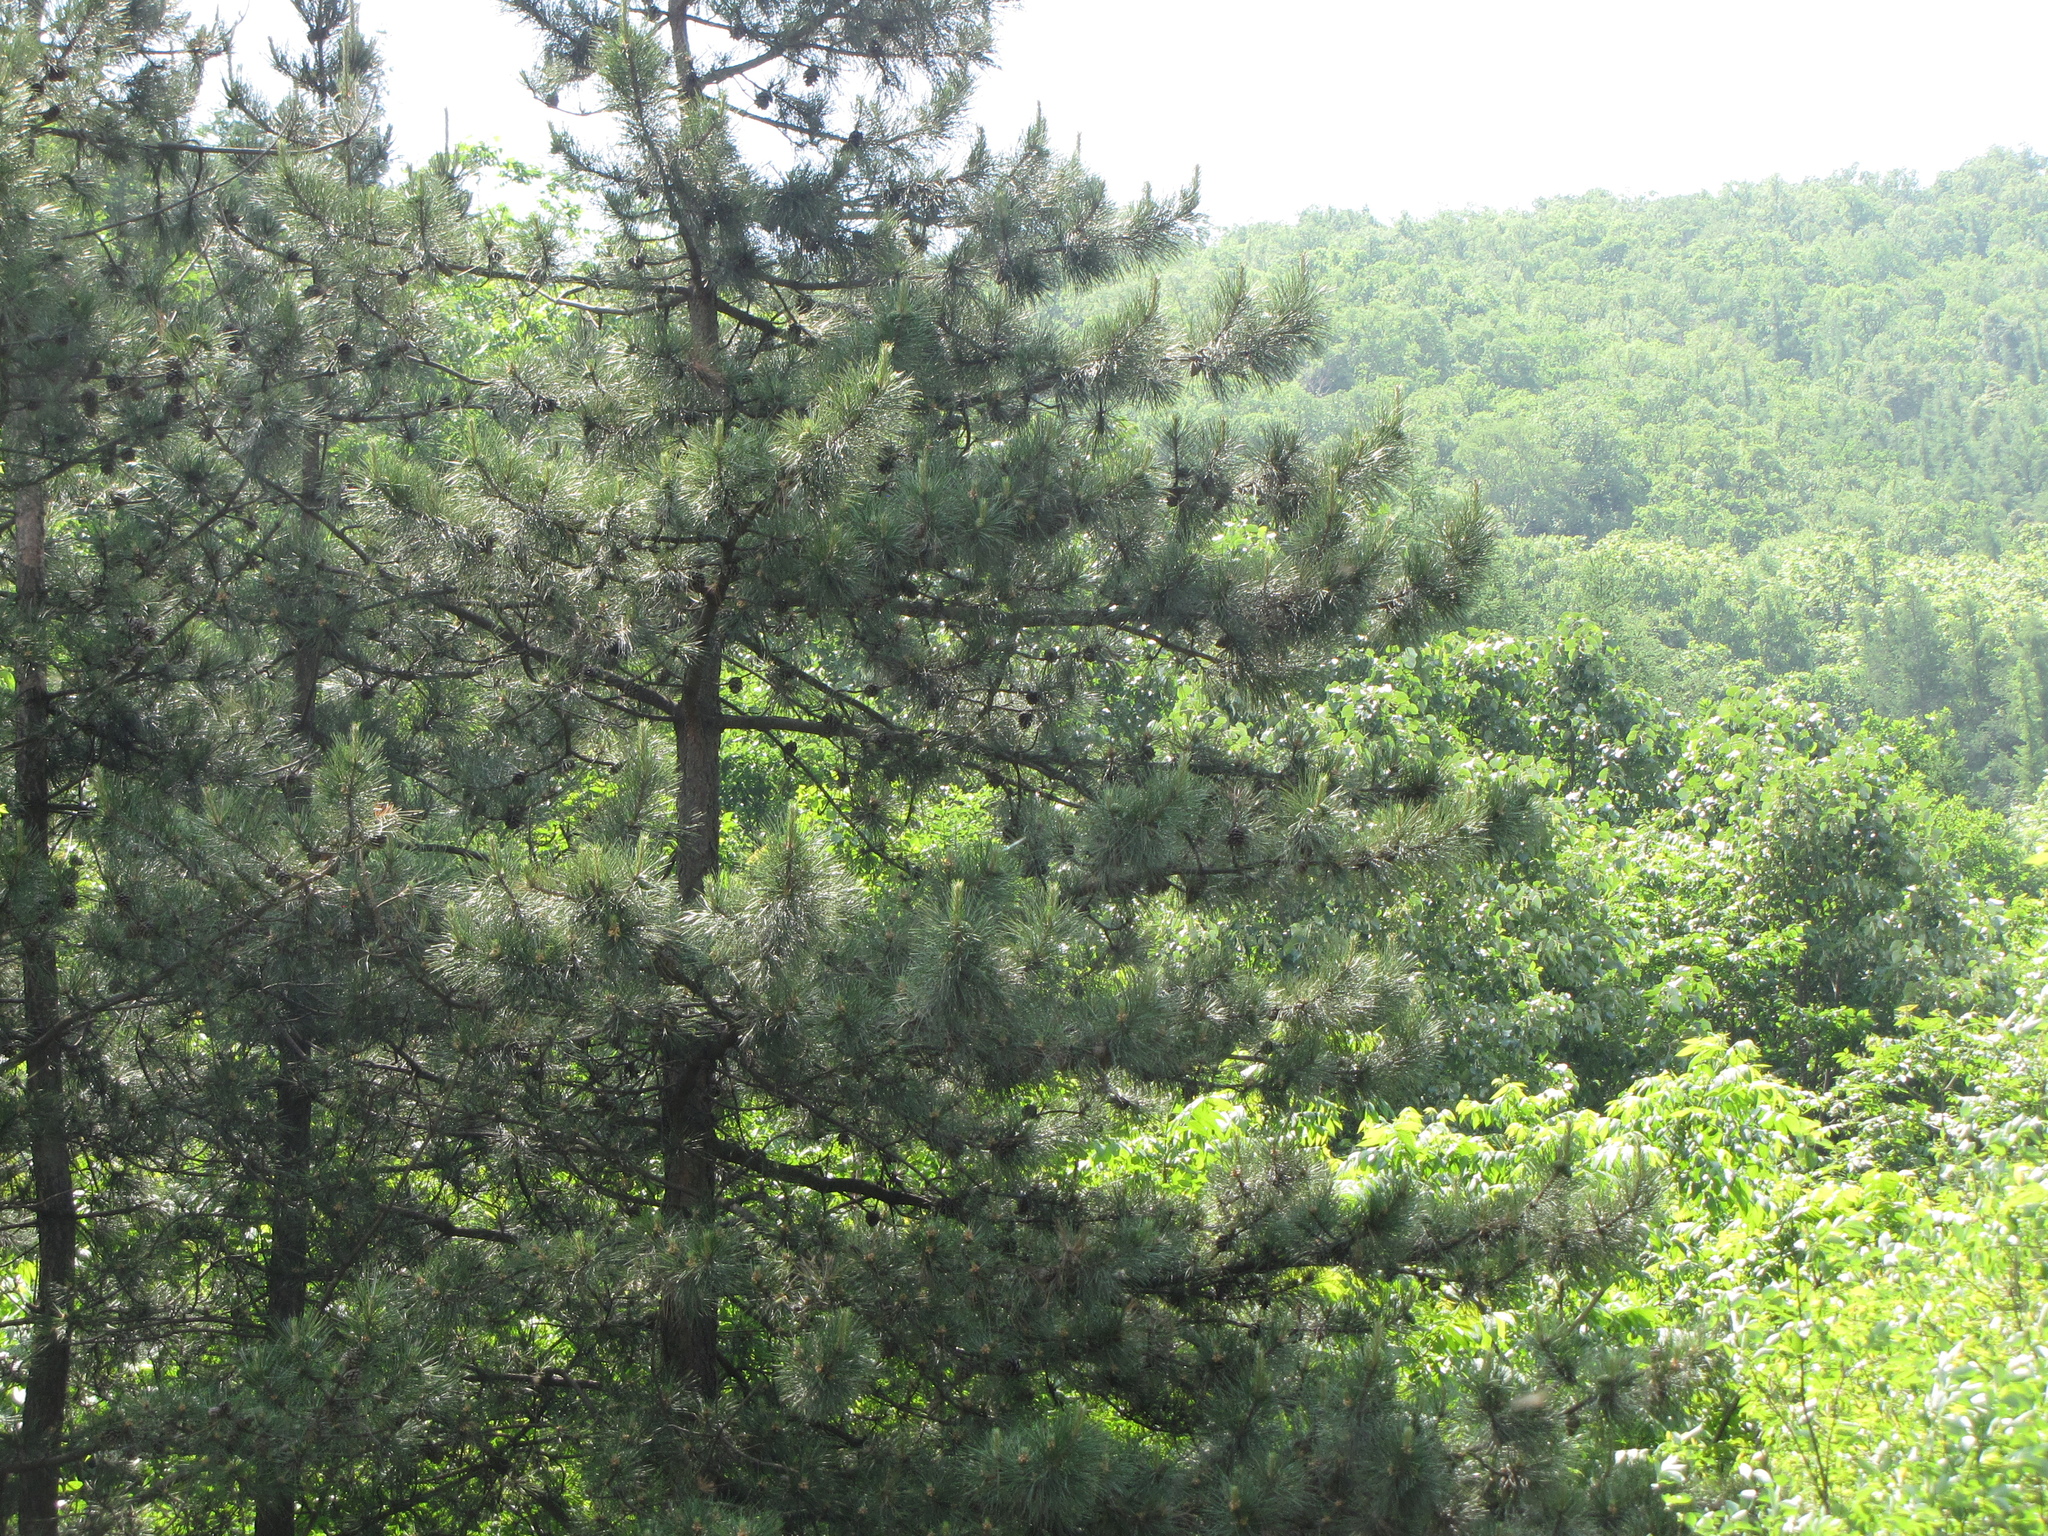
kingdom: Plantae
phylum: Tracheophyta
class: Pinopsida
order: Pinales
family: Pinaceae
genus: Pinus
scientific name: Pinus tabuliformis
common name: Chinese red pine
